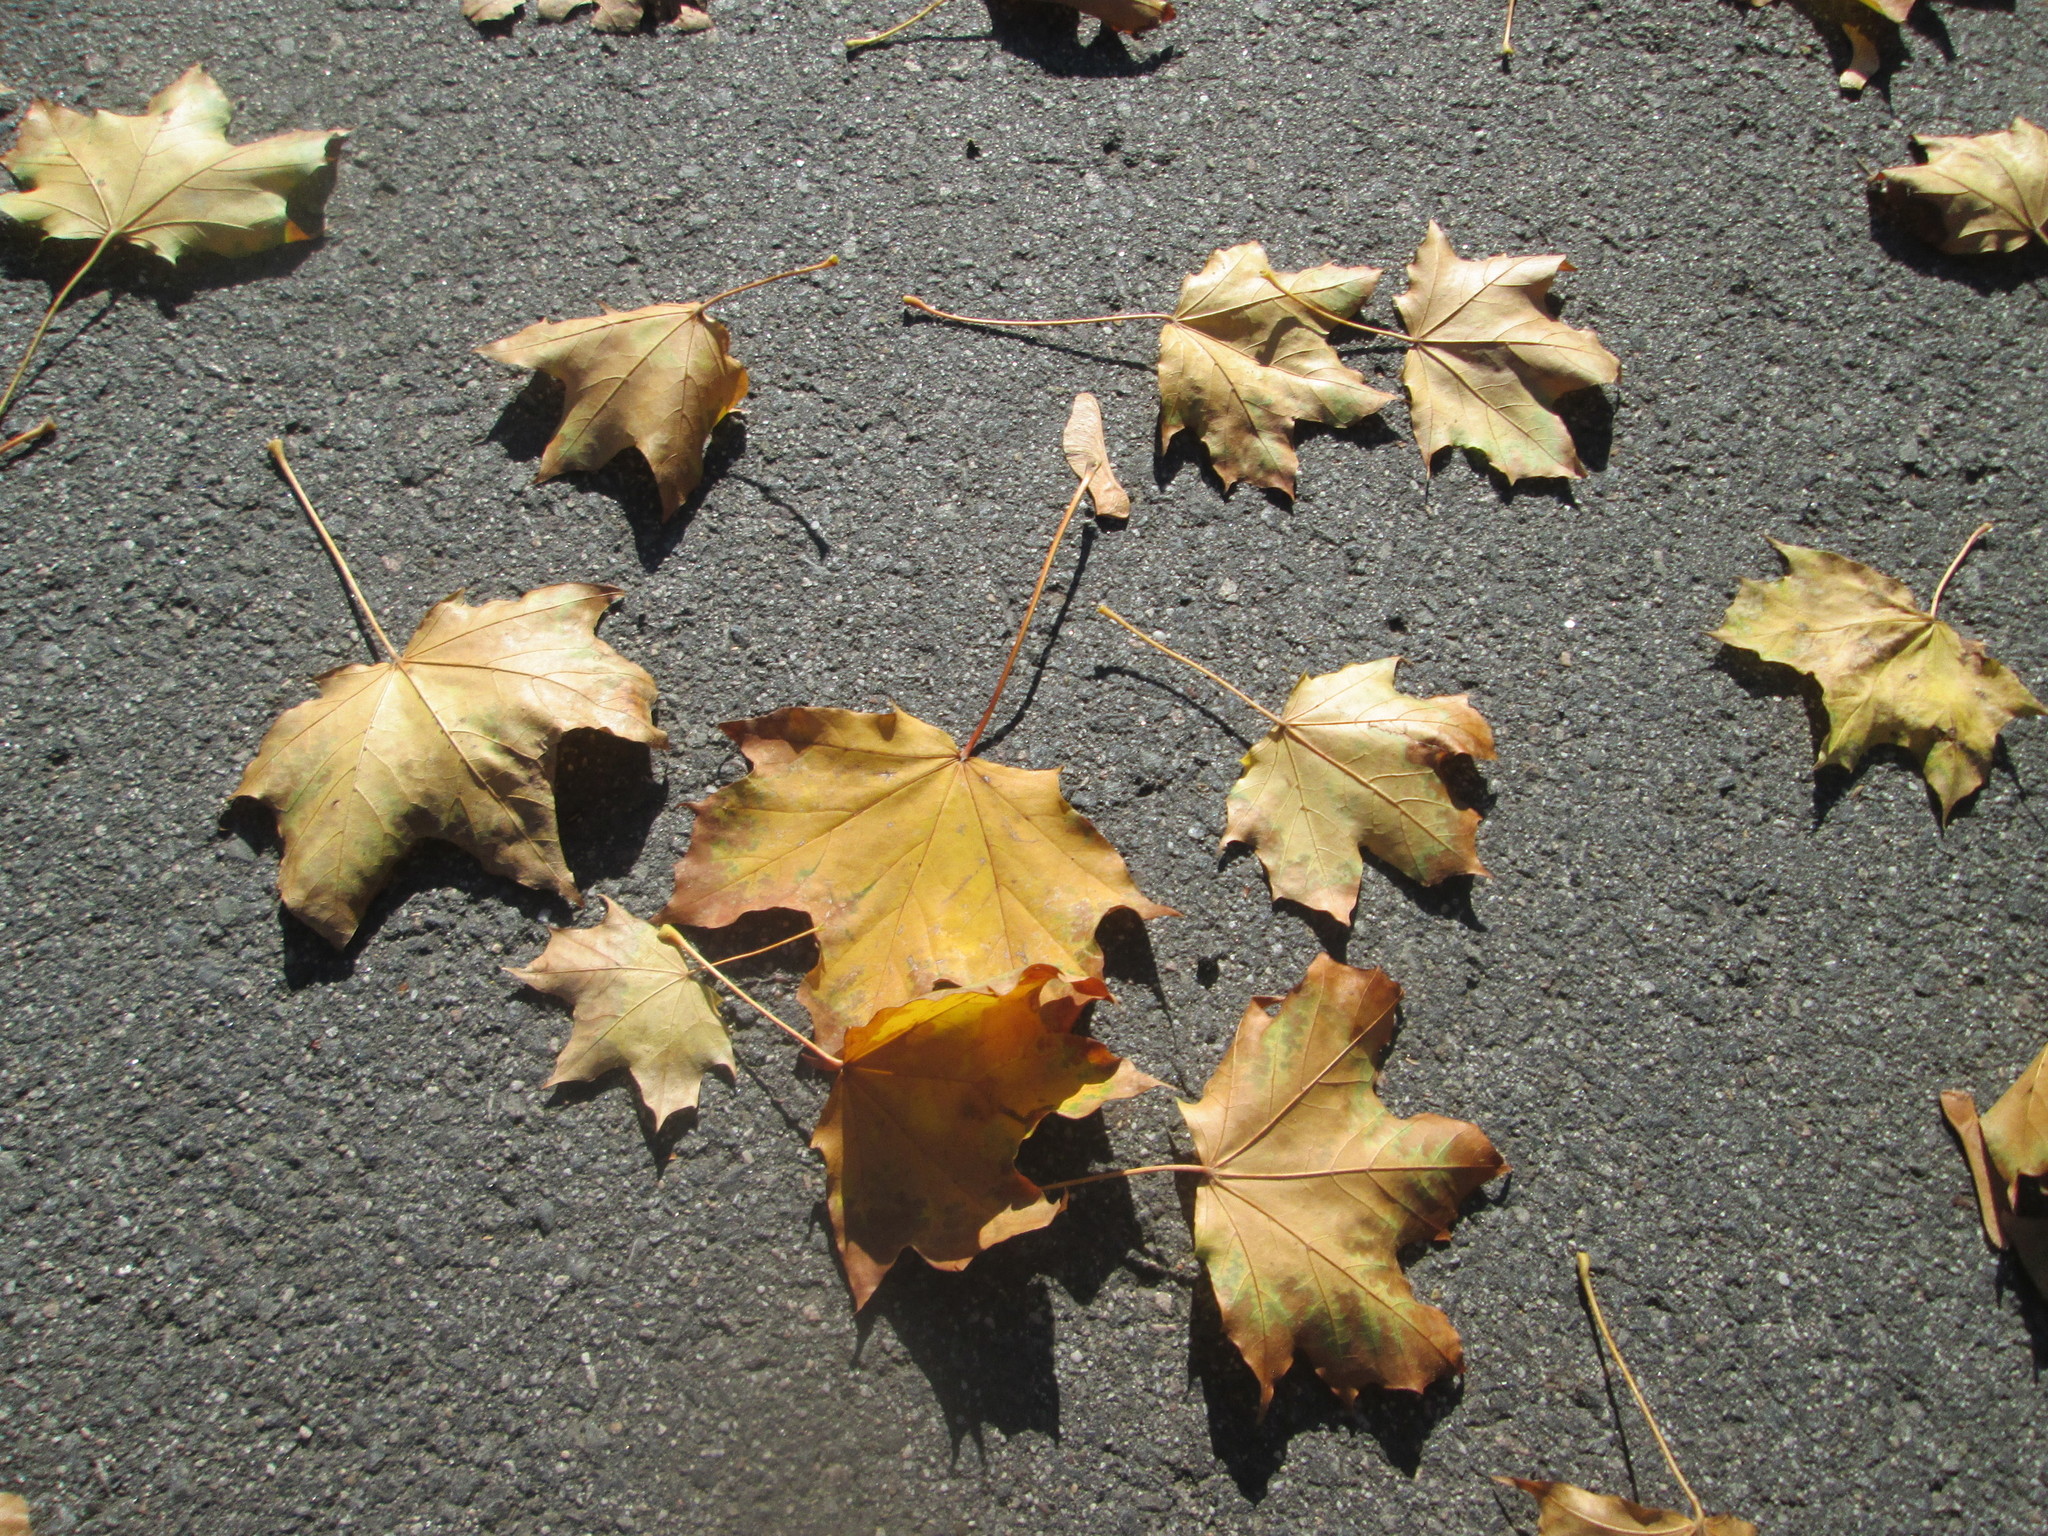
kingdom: Plantae
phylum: Tracheophyta
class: Magnoliopsida
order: Sapindales
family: Sapindaceae
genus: Acer
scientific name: Acer platanoides
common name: Norway maple
